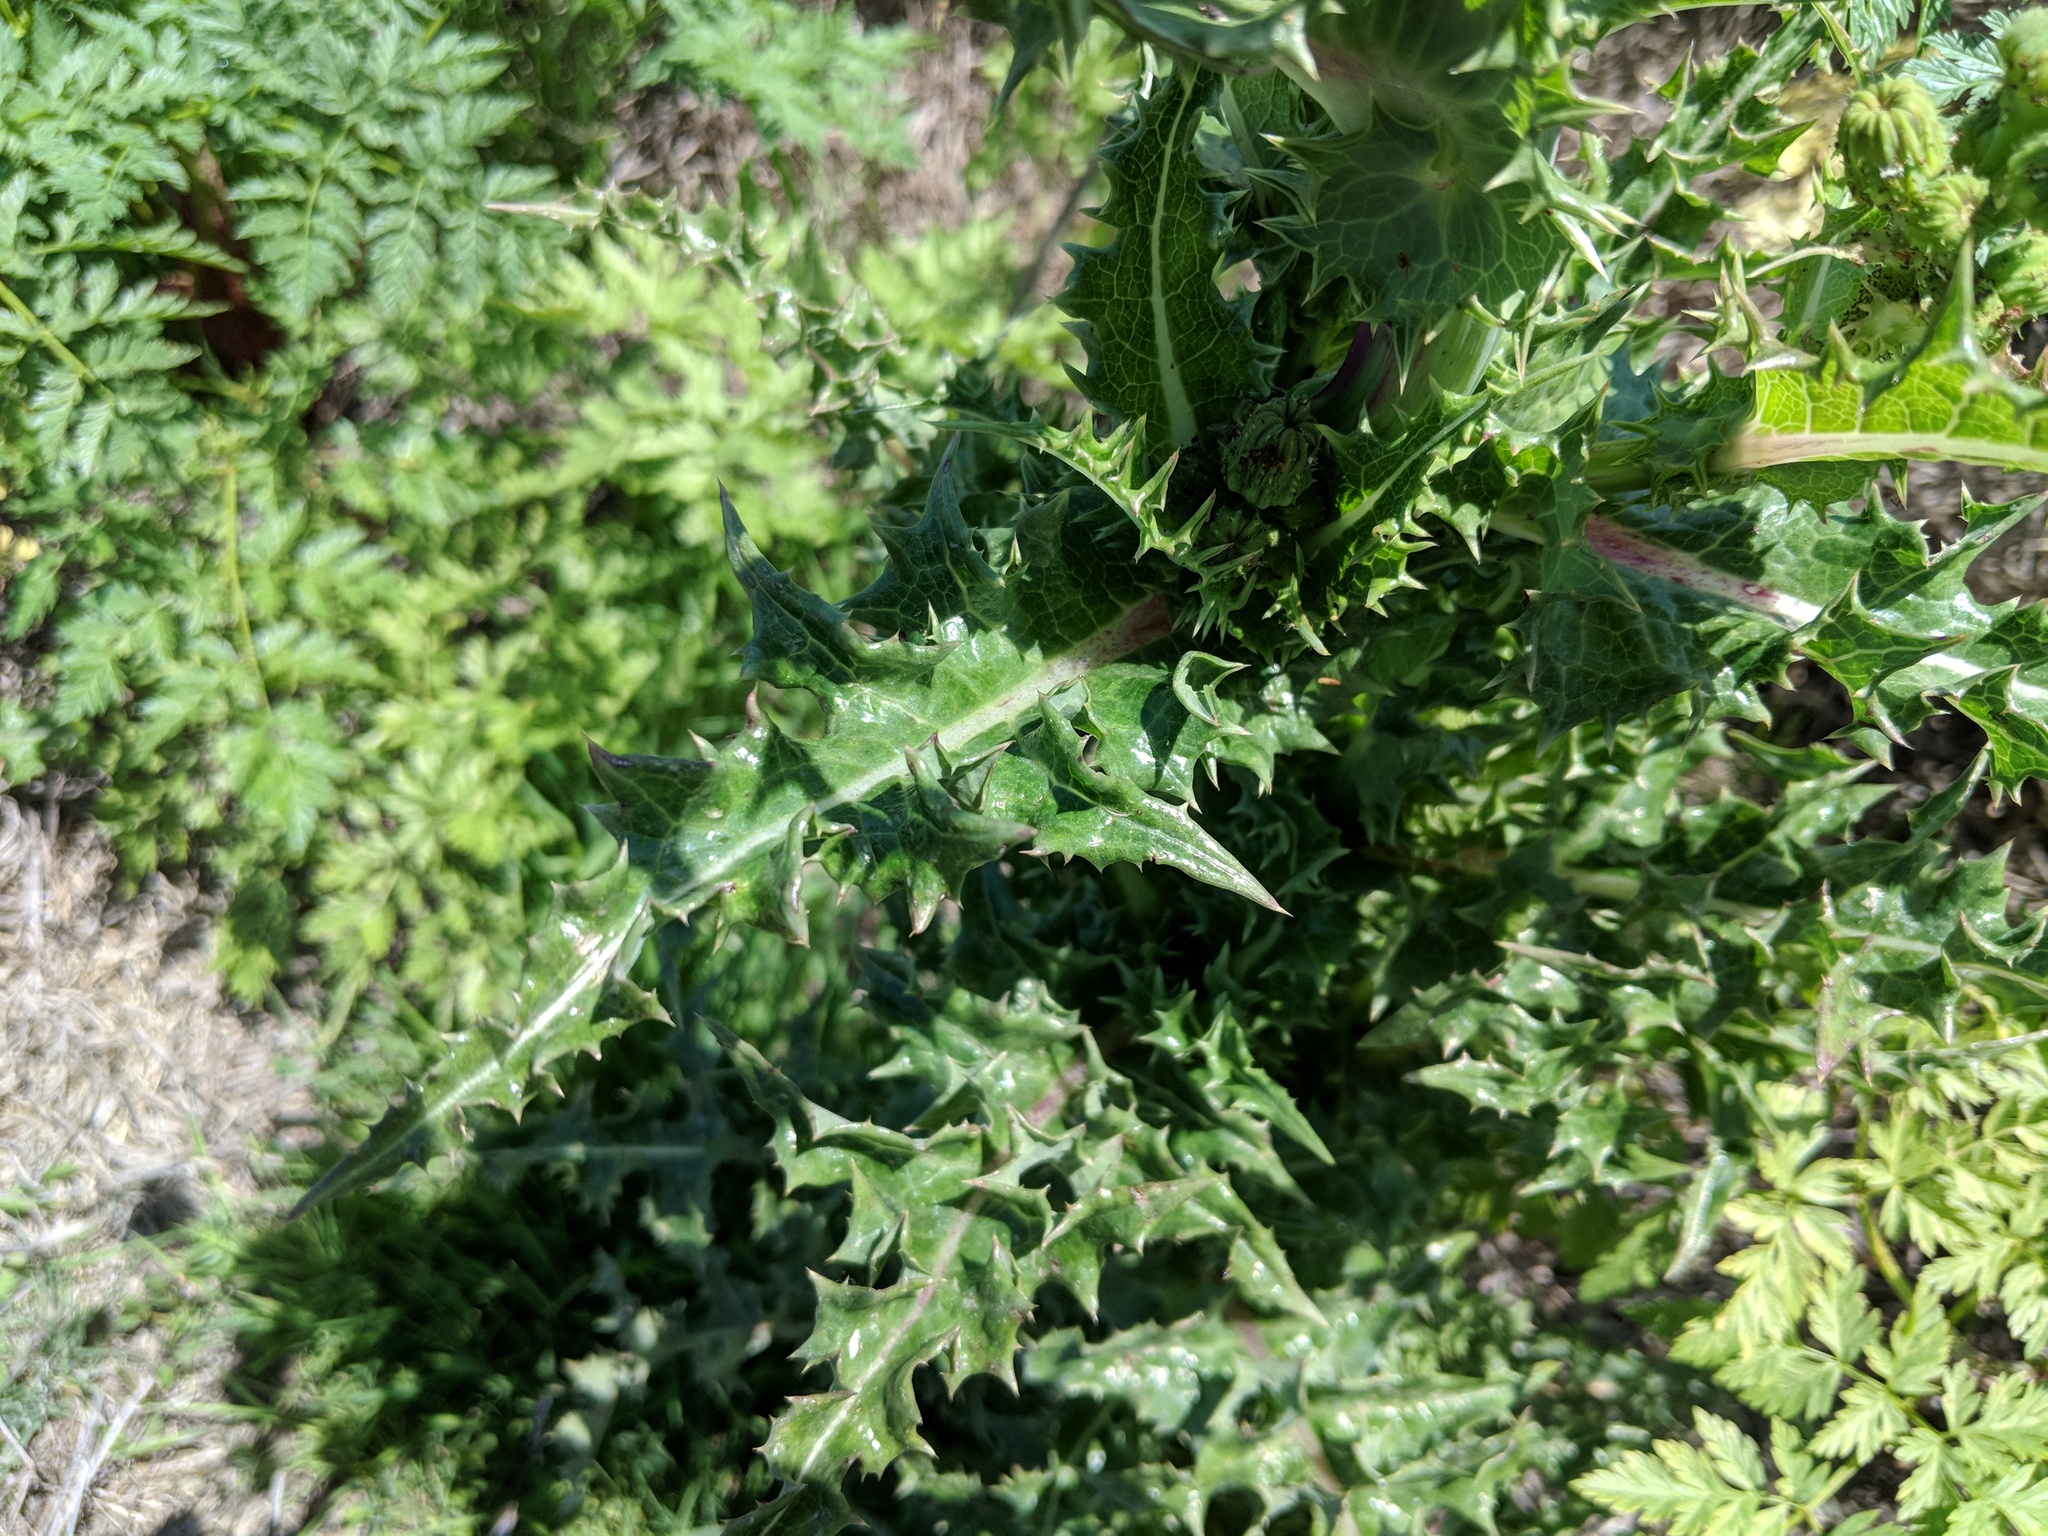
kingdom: Plantae
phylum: Tracheophyta
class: Magnoliopsida
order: Asterales
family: Asteraceae
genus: Sonchus
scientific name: Sonchus asper
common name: Prickly sow-thistle
